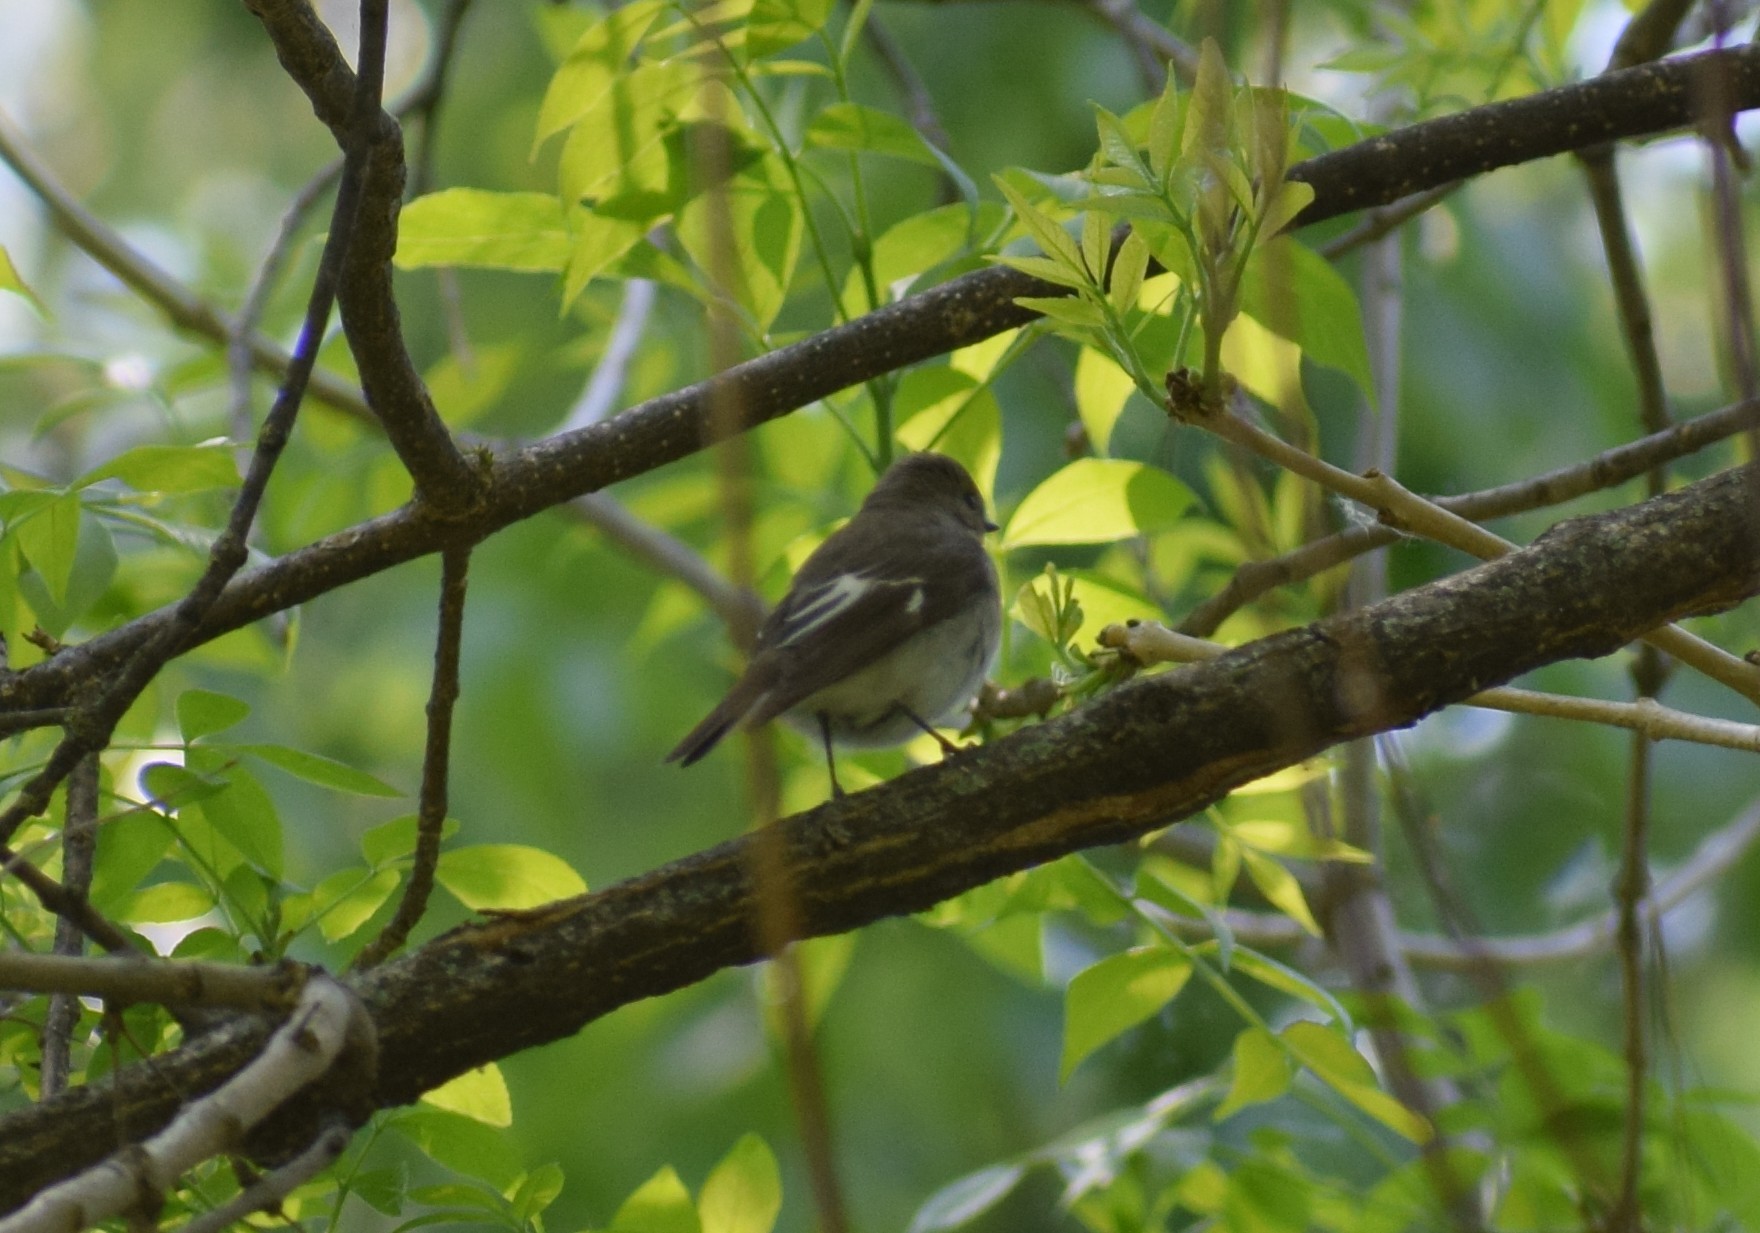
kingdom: Animalia
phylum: Chordata
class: Aves
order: Passeriformes
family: Muscicapidae
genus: Ficedula
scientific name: Ficedula hypoleuca
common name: European pied flycatcher
